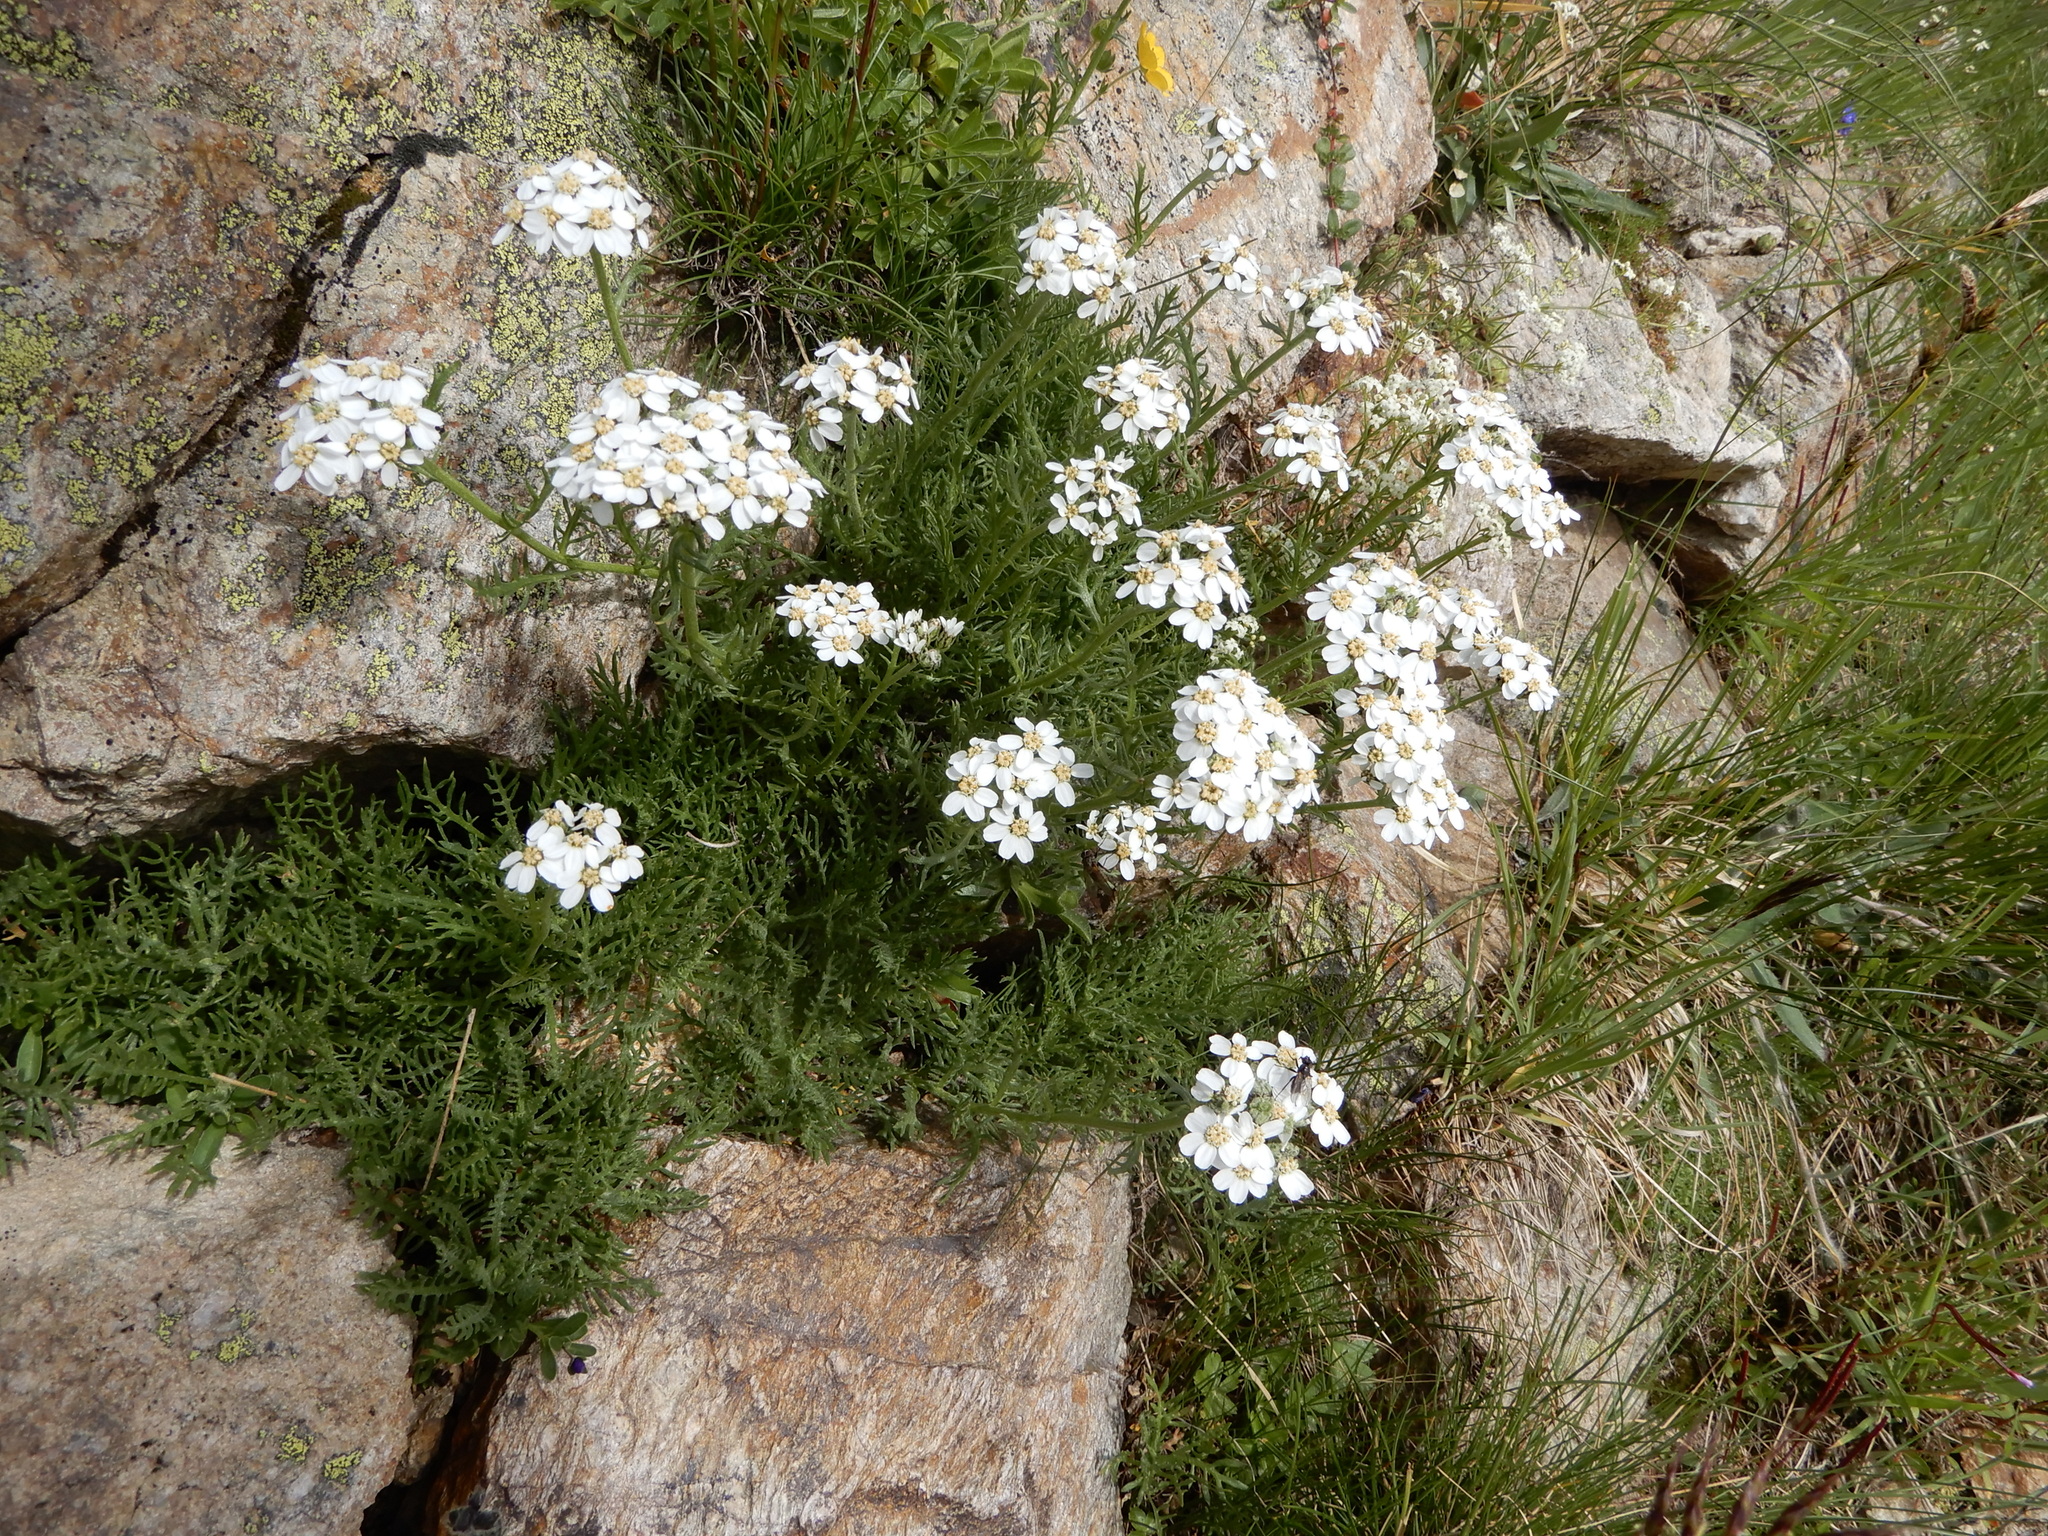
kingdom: Plantae
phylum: Tracheophyta
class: Magnoliopsida
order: Asterales
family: Asteraceae
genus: Achillea
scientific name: Achillea erba-rotta
